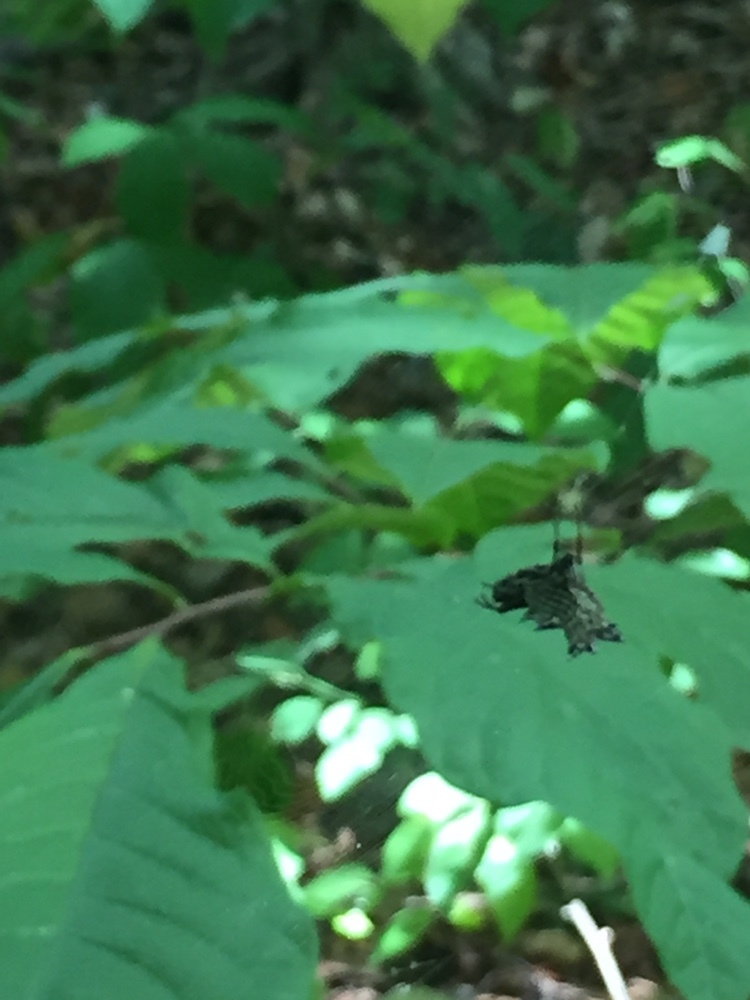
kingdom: Animalia
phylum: Arthropoda
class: Arachnida
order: Araneae
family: Araneidae
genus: Micrathena
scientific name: Micrathena gracilis
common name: Orb weavers
